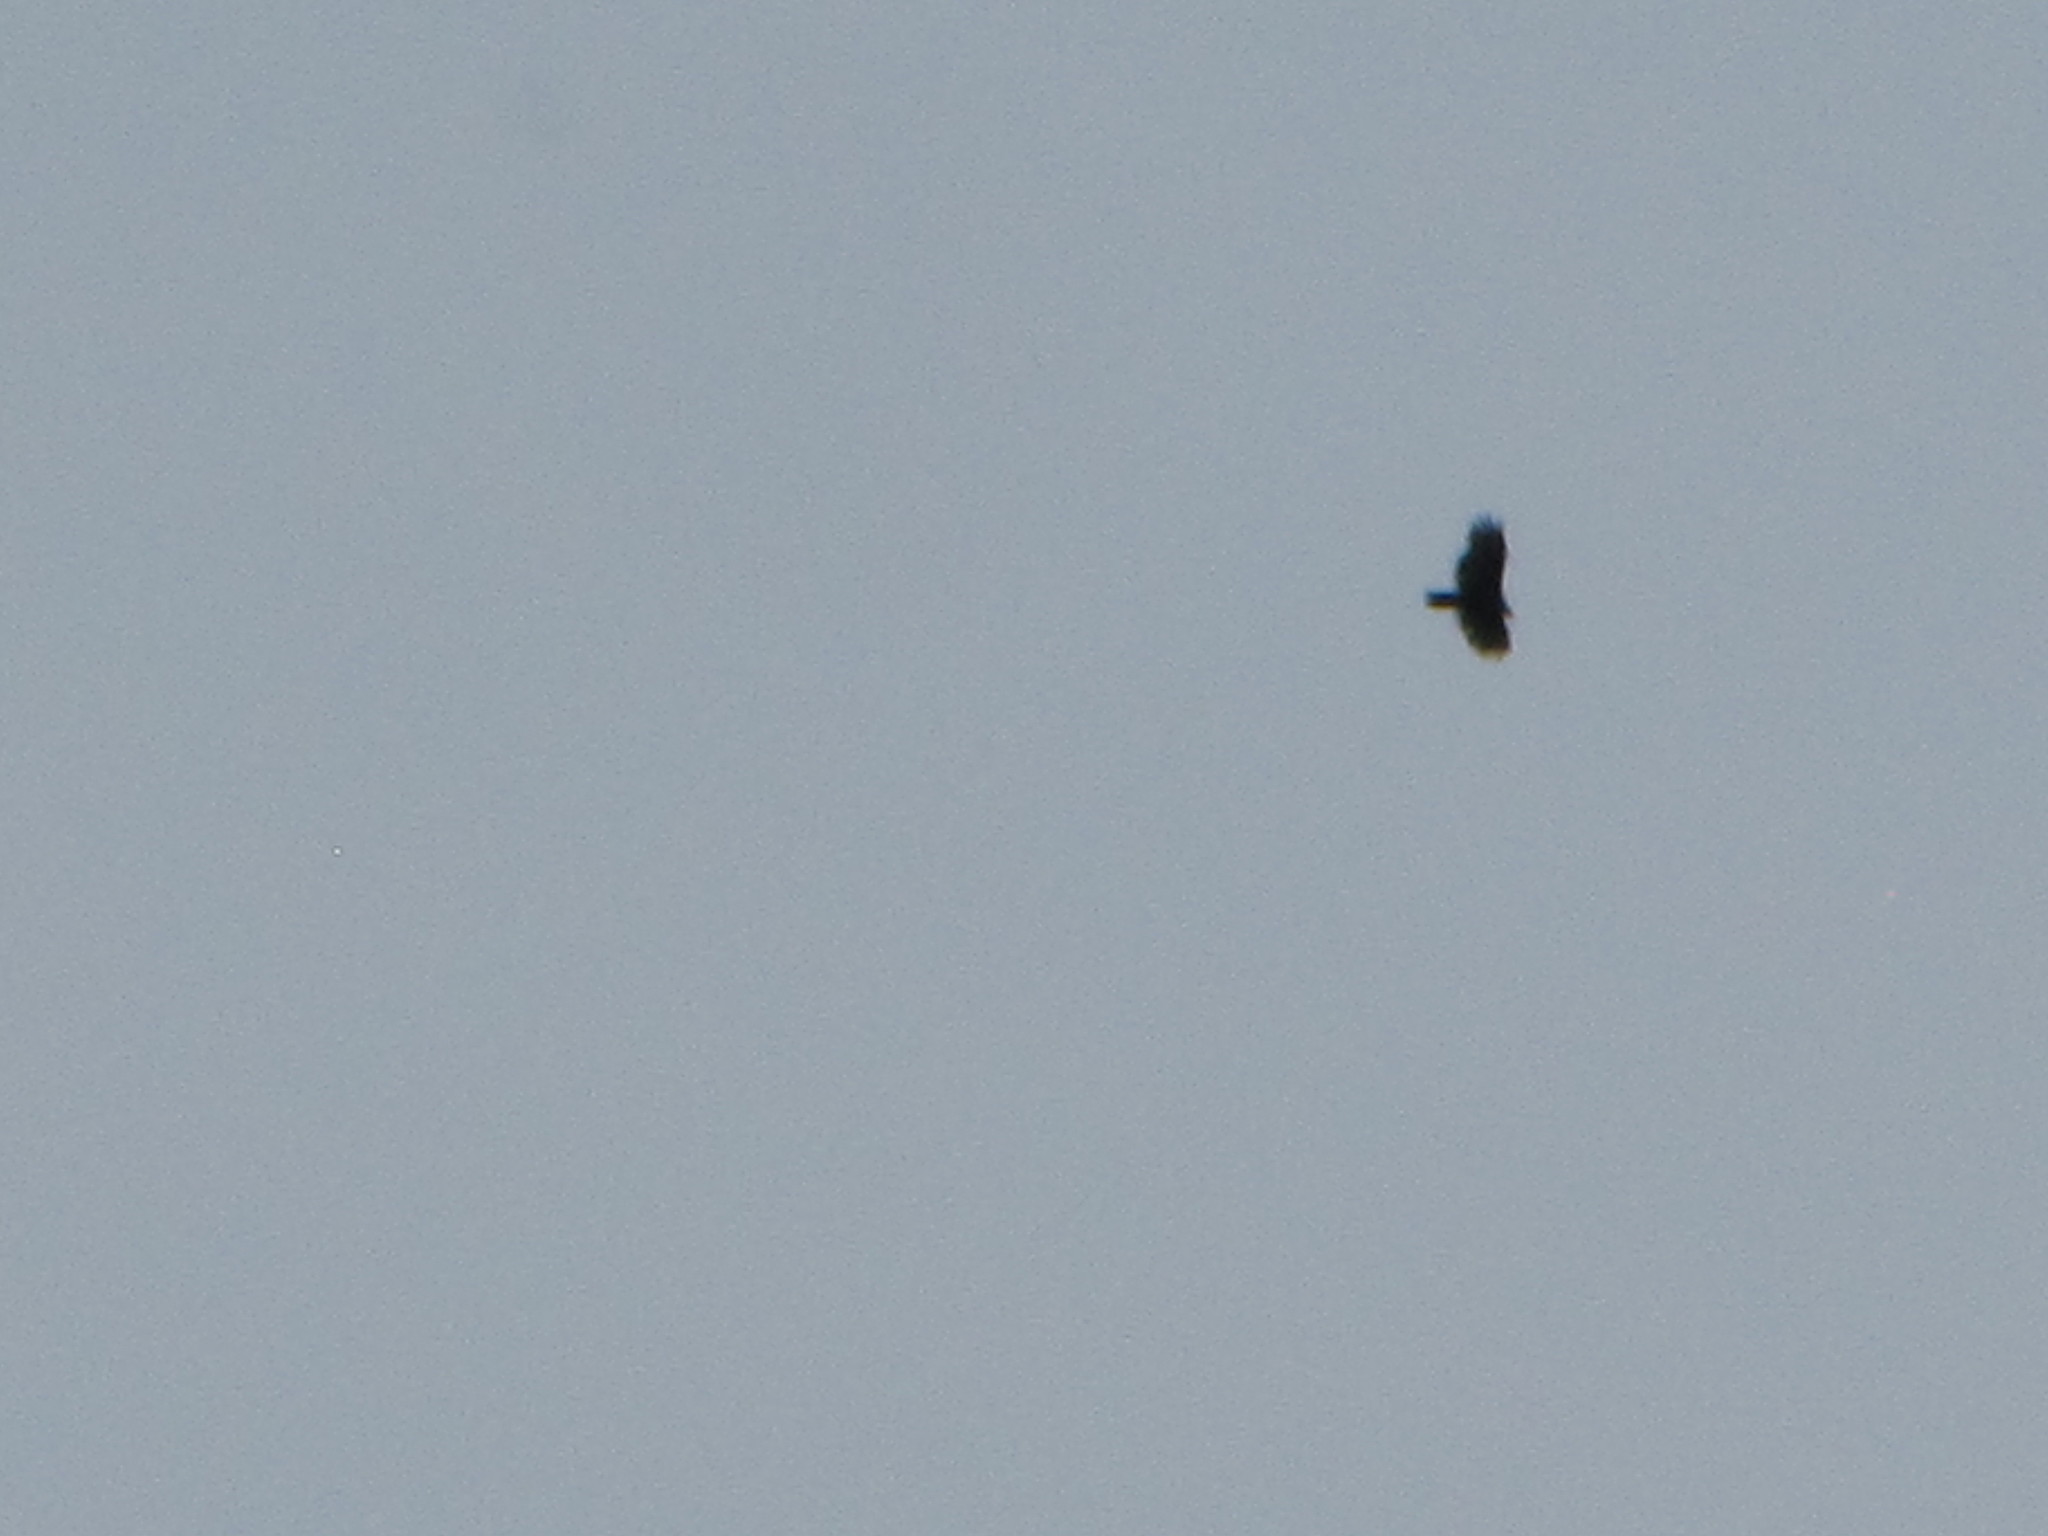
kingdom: Animalia
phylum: Chordata
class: Aves
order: Accipitriformes
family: Cathartidae
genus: Cathartes
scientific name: Cathartes aura
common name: Turkey vulture
